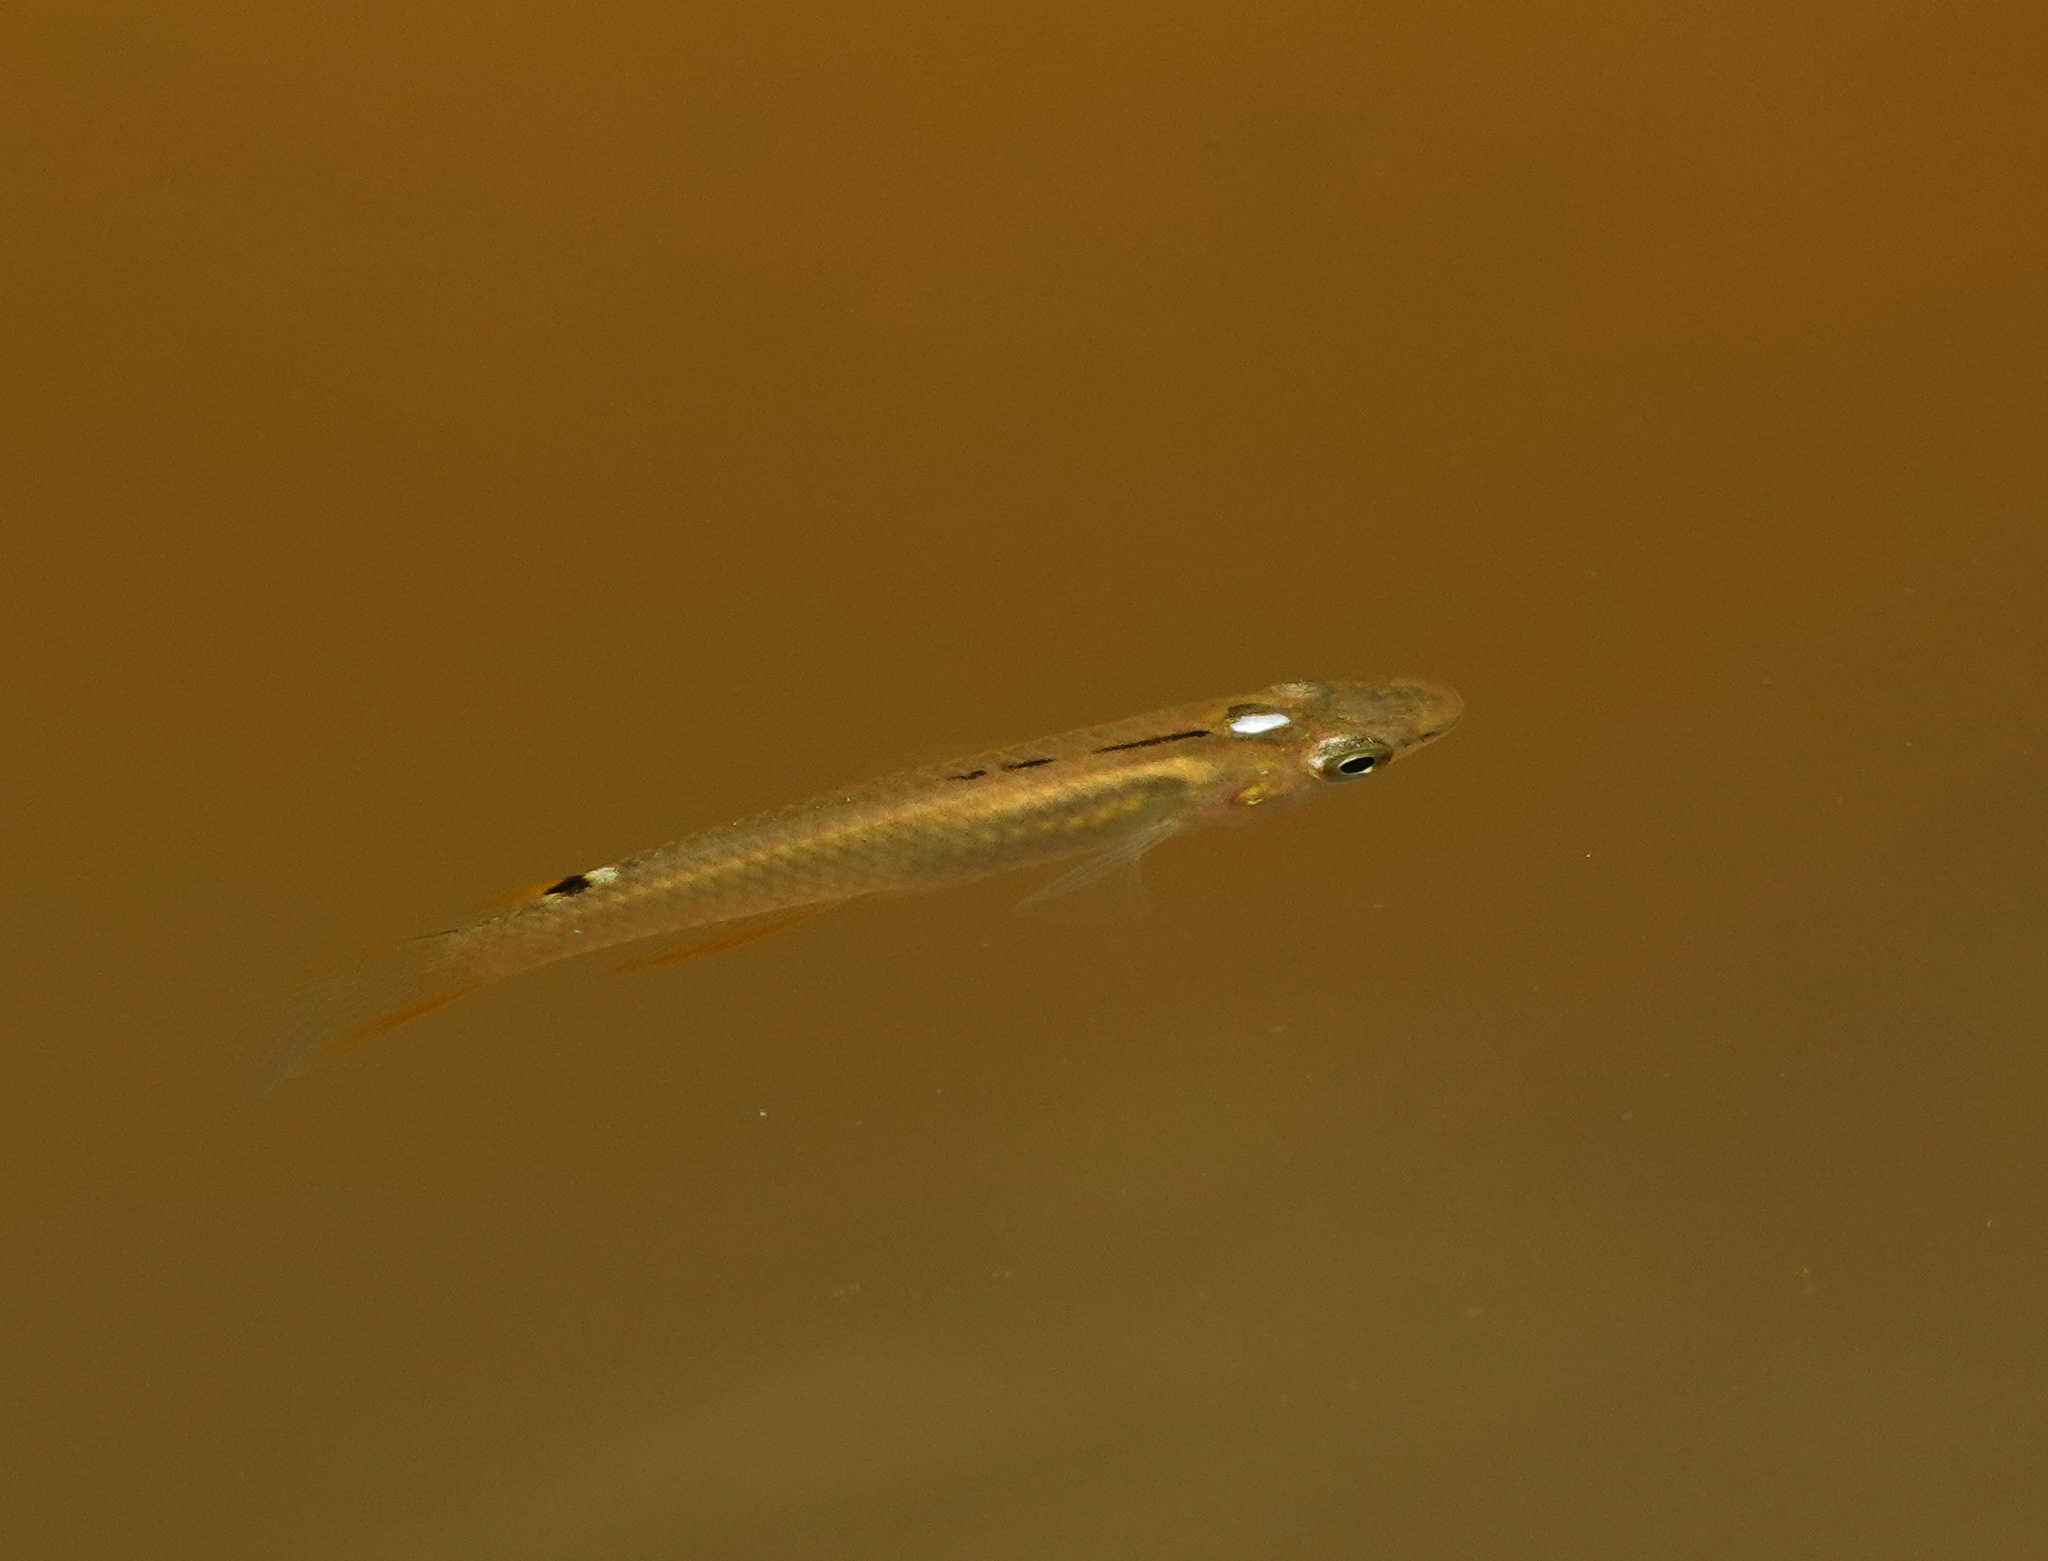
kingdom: Animalia
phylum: Chordata
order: Cyprinodontiformes
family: Aplocheilidae
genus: Aplocheilus
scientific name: Aplocheilus panchax
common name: Blue panchax
